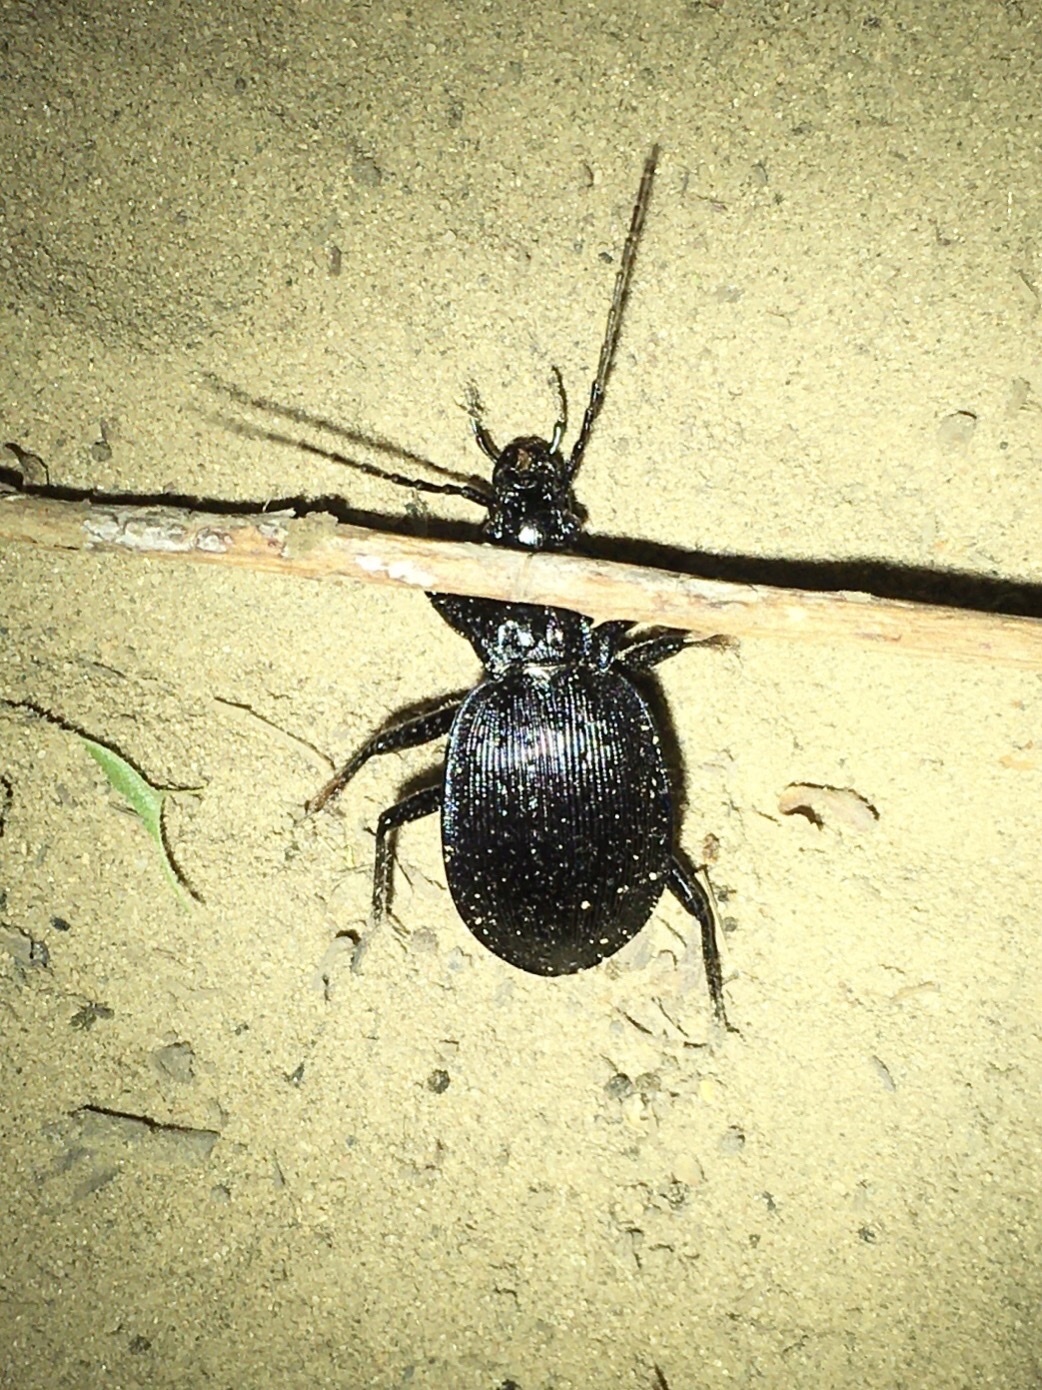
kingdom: Animalia
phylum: Arthropoda
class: Insecta
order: Coleoptera
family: Carabidae
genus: Carabus
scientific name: Carabus goryi
